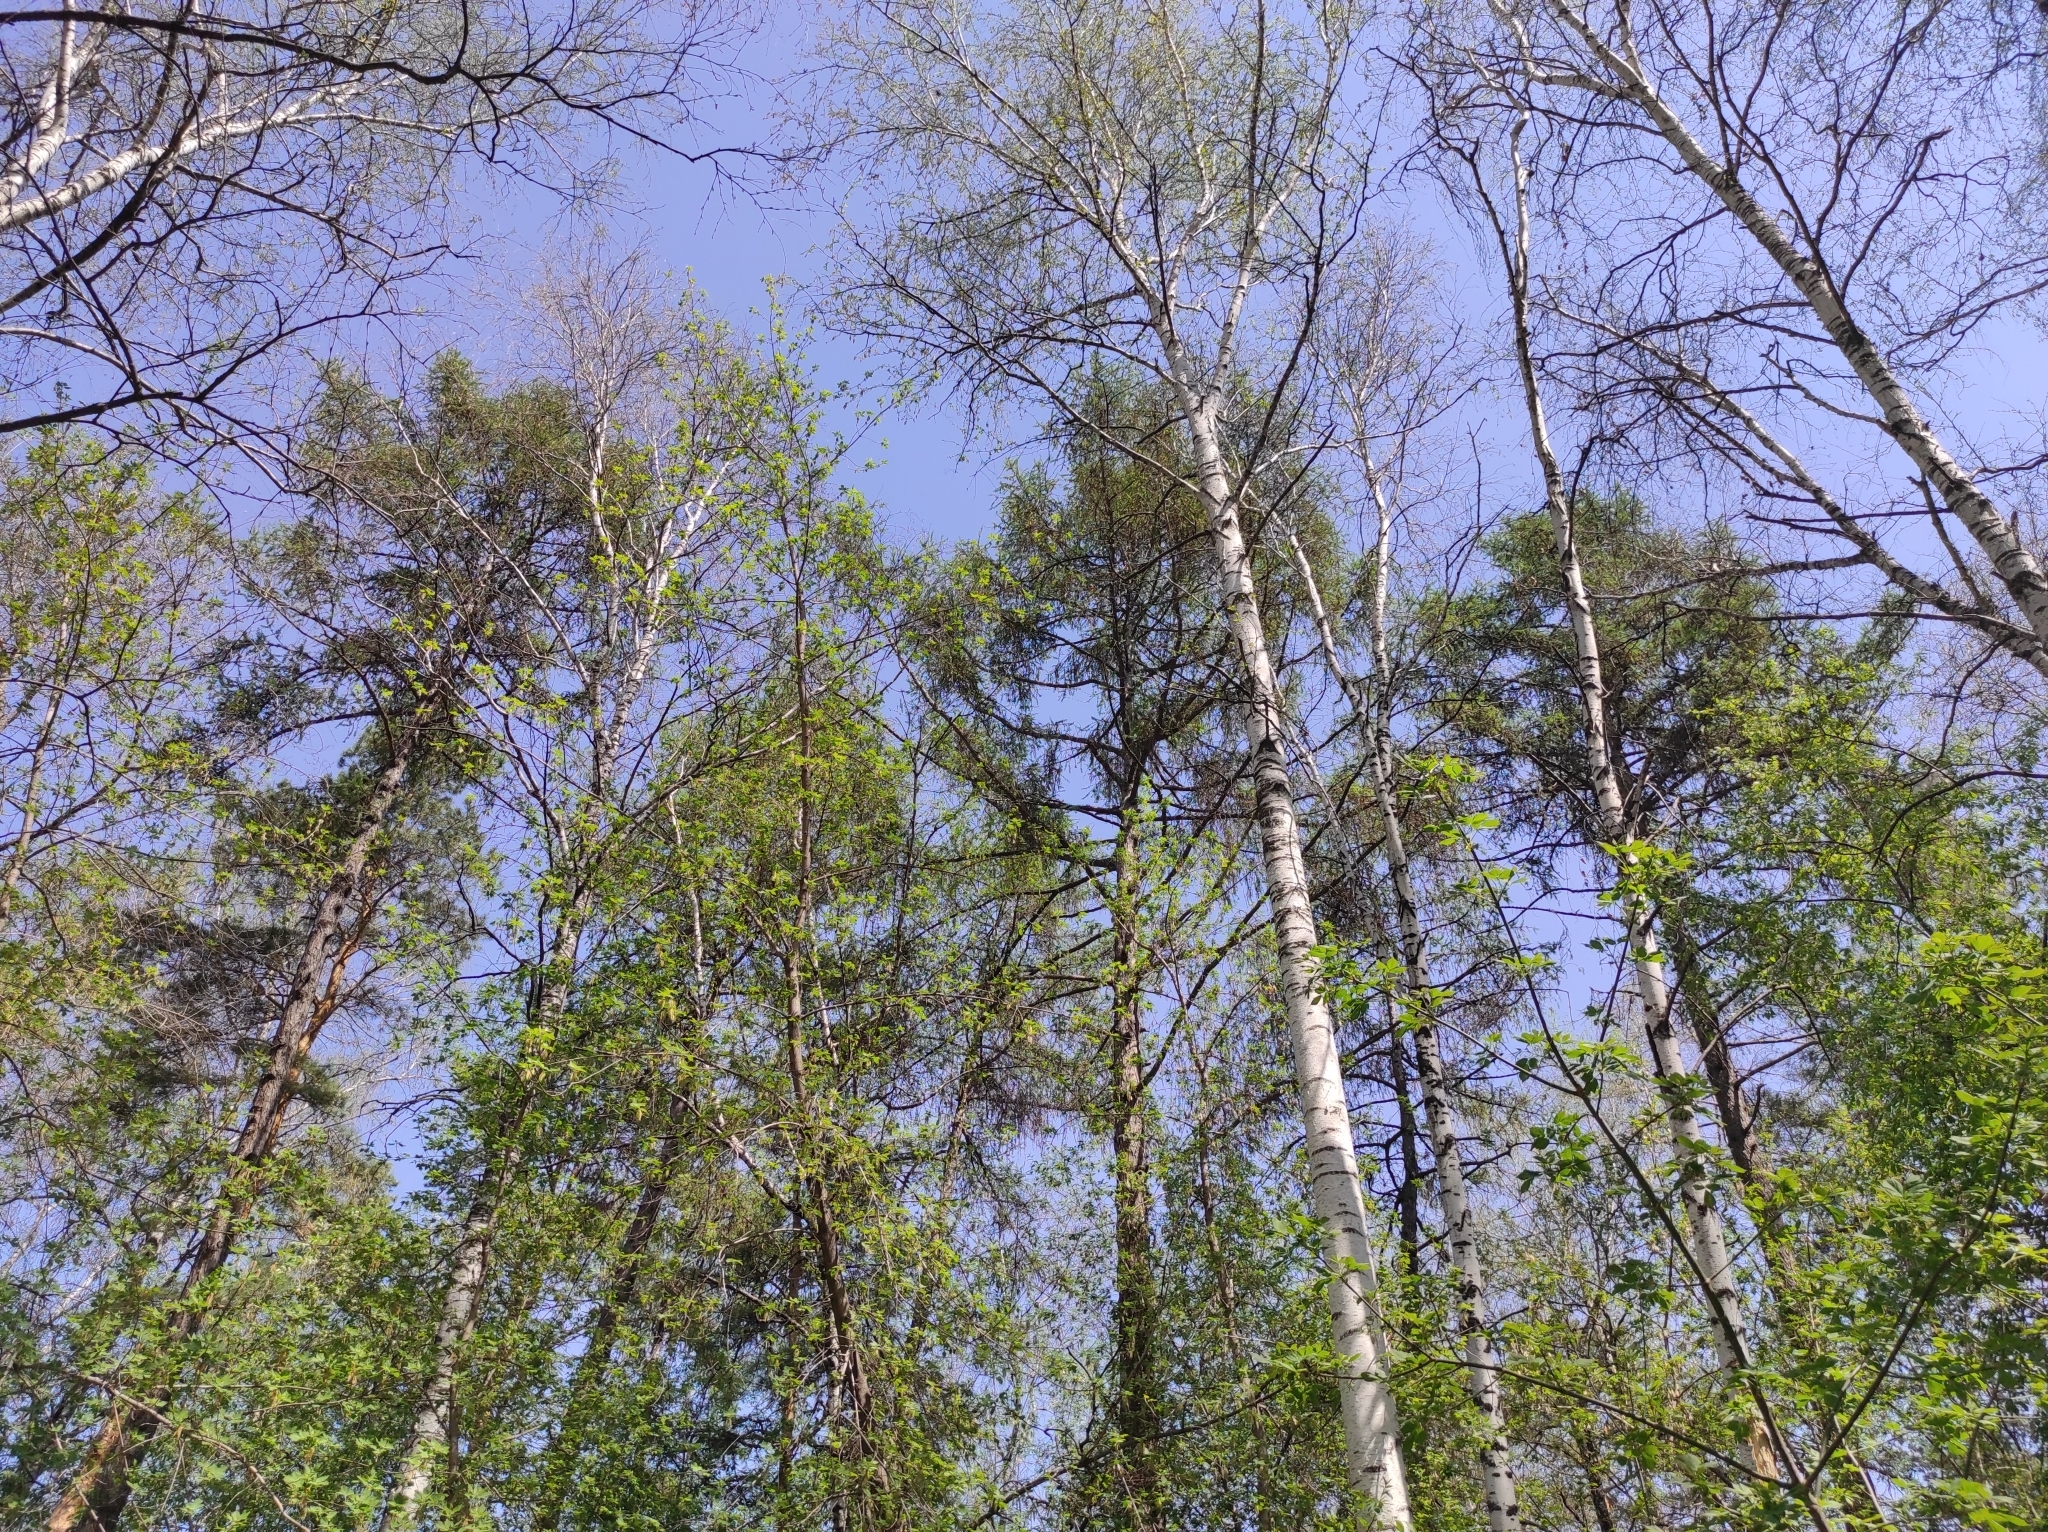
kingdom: Plantae
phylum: Tracheophyta
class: Pinopsida
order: Pinales
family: Pinaceae
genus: Pinus
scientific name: Pinus sylvestris
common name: Scots pine
